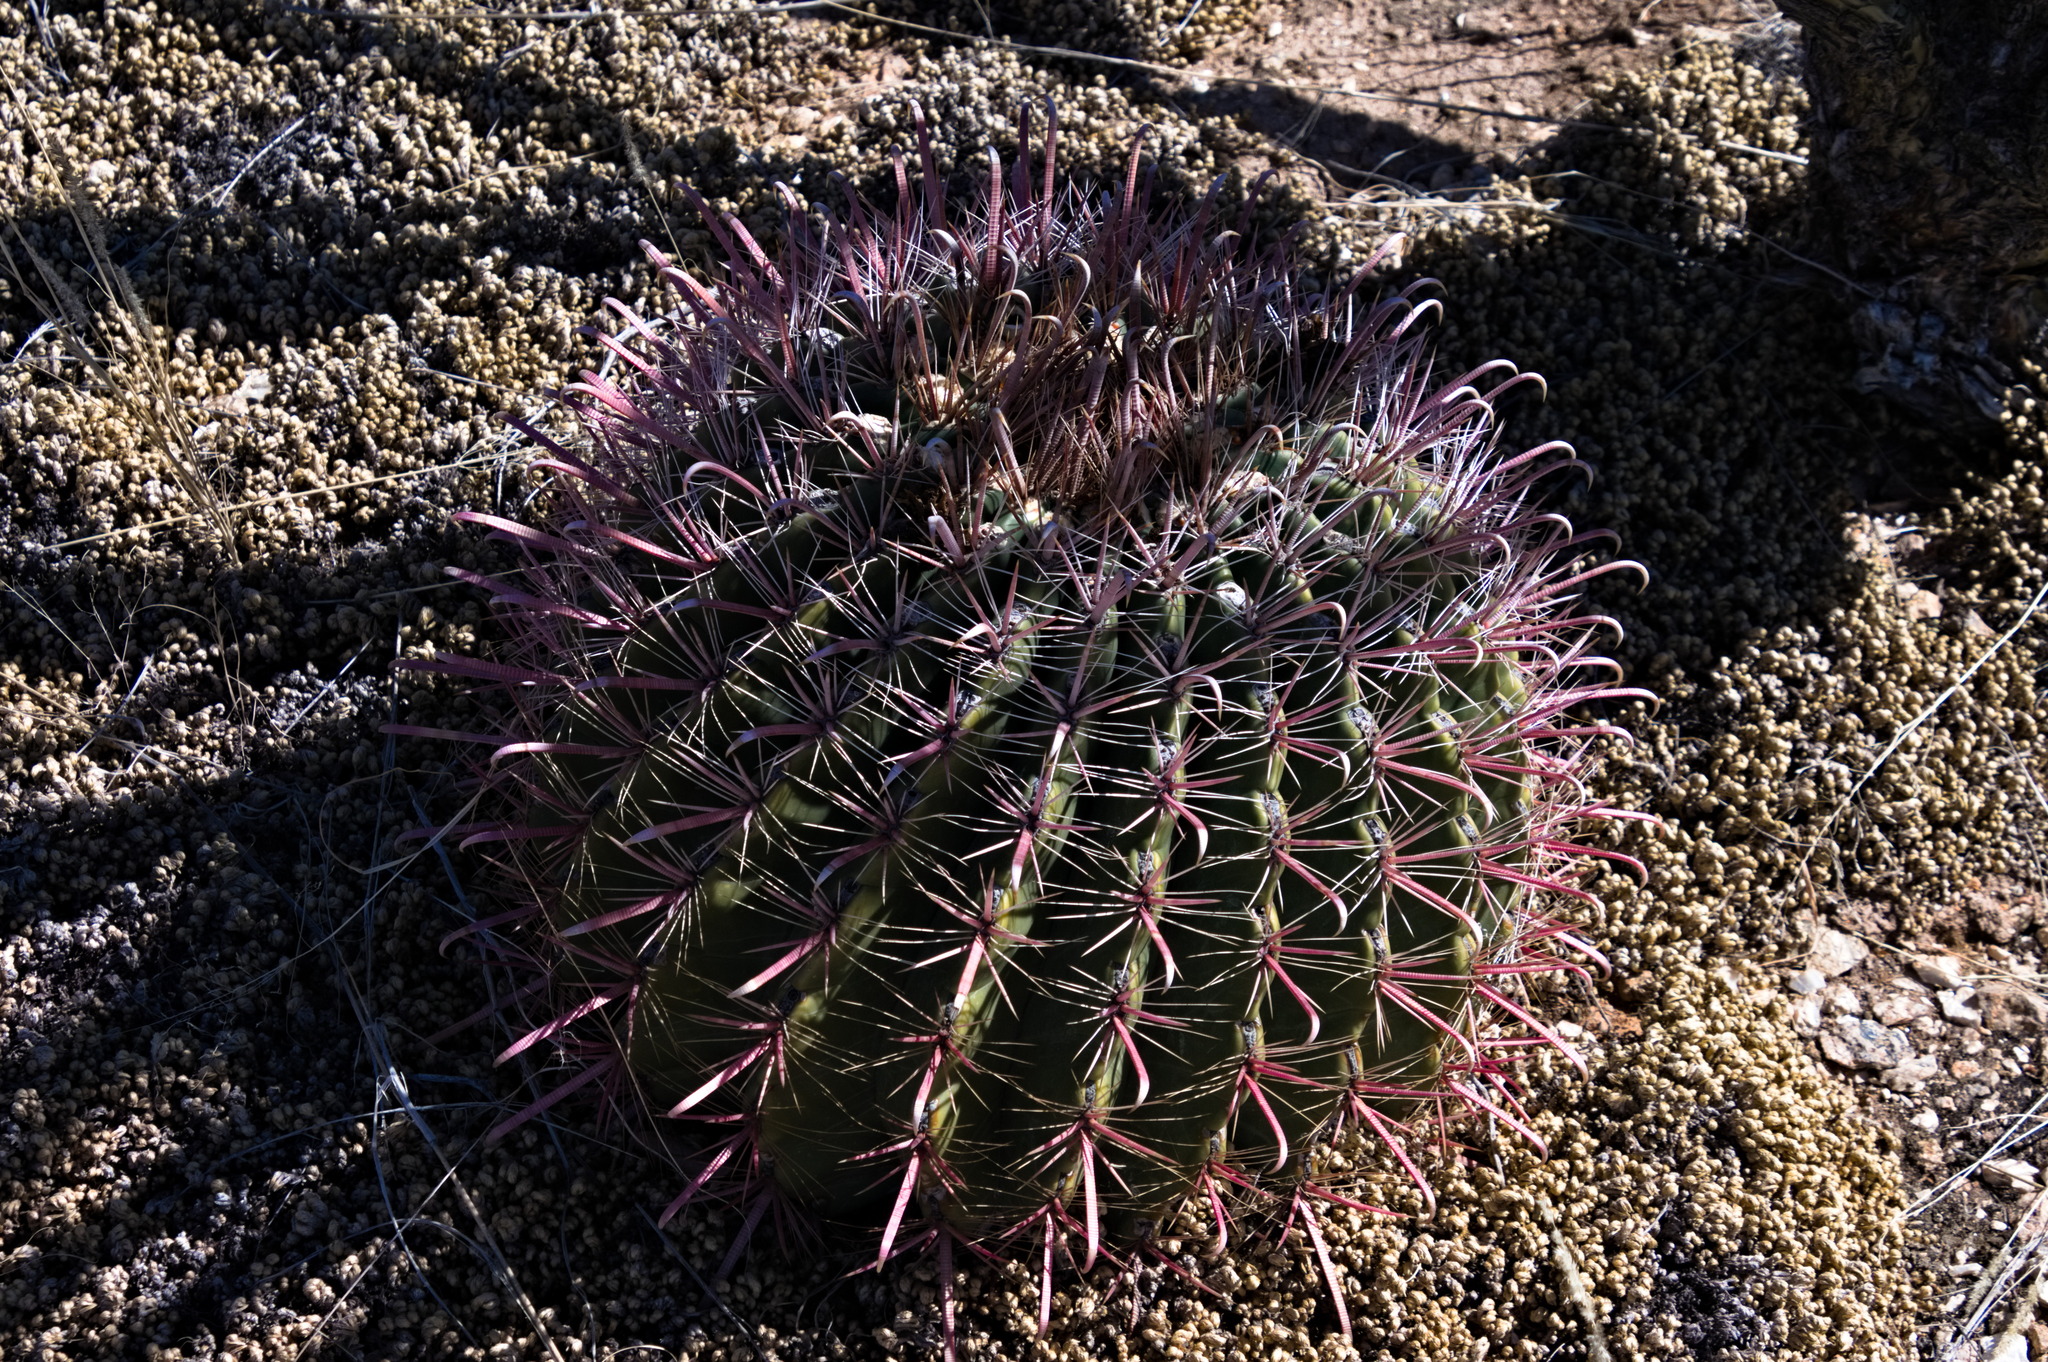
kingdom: Plantae
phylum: Tracheophyta
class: Magnoliopsida
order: Caryophyllales
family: Cactaceae
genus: Ferocactus
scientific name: Ferocactus wislizeni
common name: Candy barrel cactus
